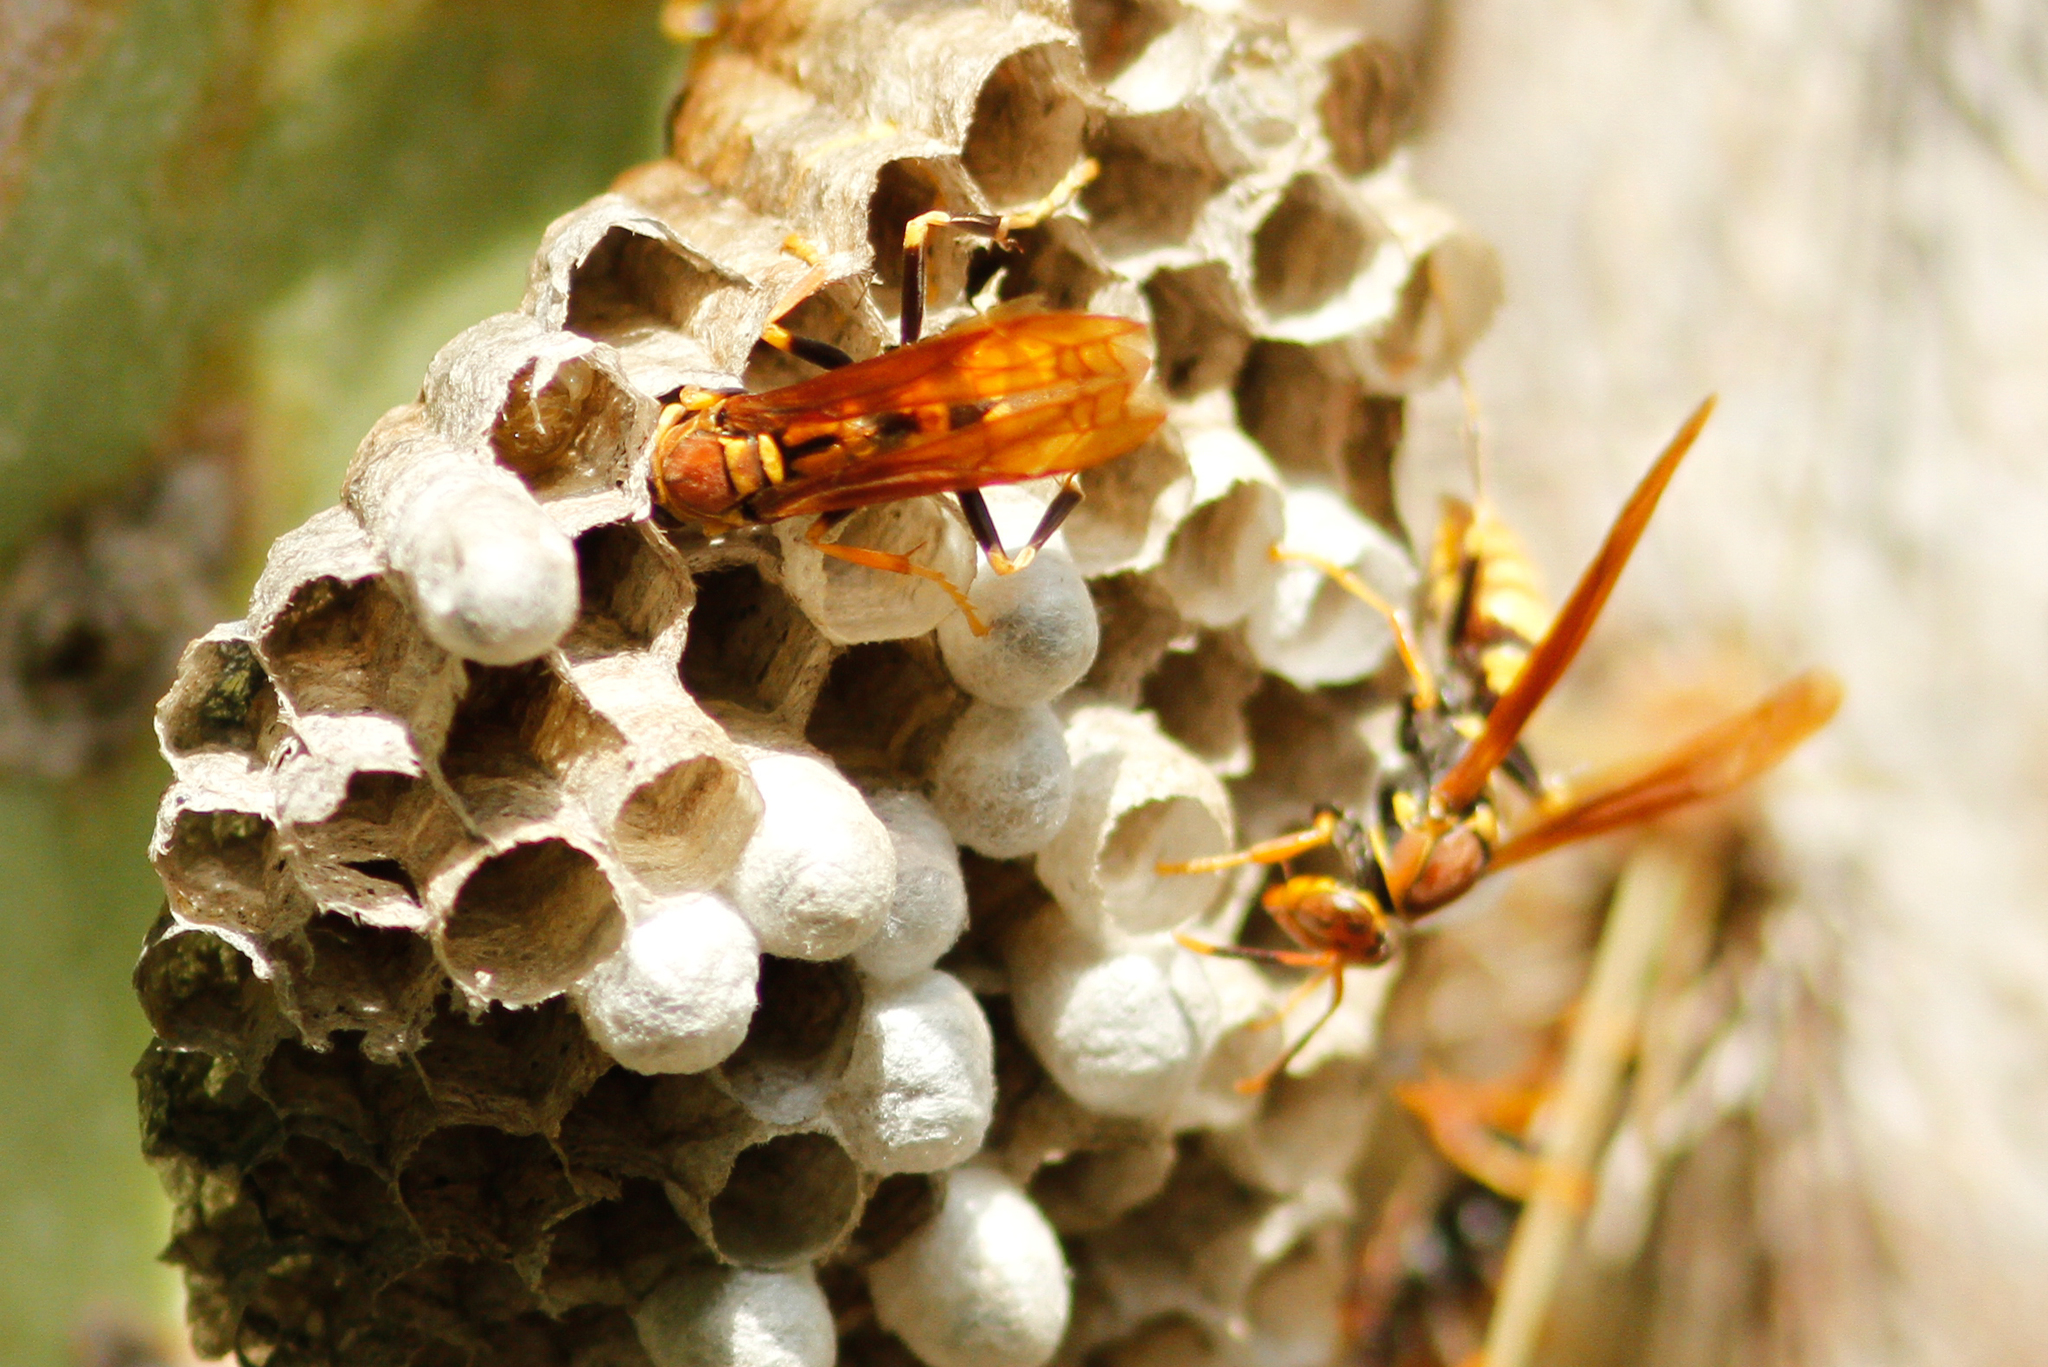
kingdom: Animalia
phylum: Arthropoda
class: Insecta
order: Hymenoptera
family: Eumenidae
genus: Polistes
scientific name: Polistes versicolor
